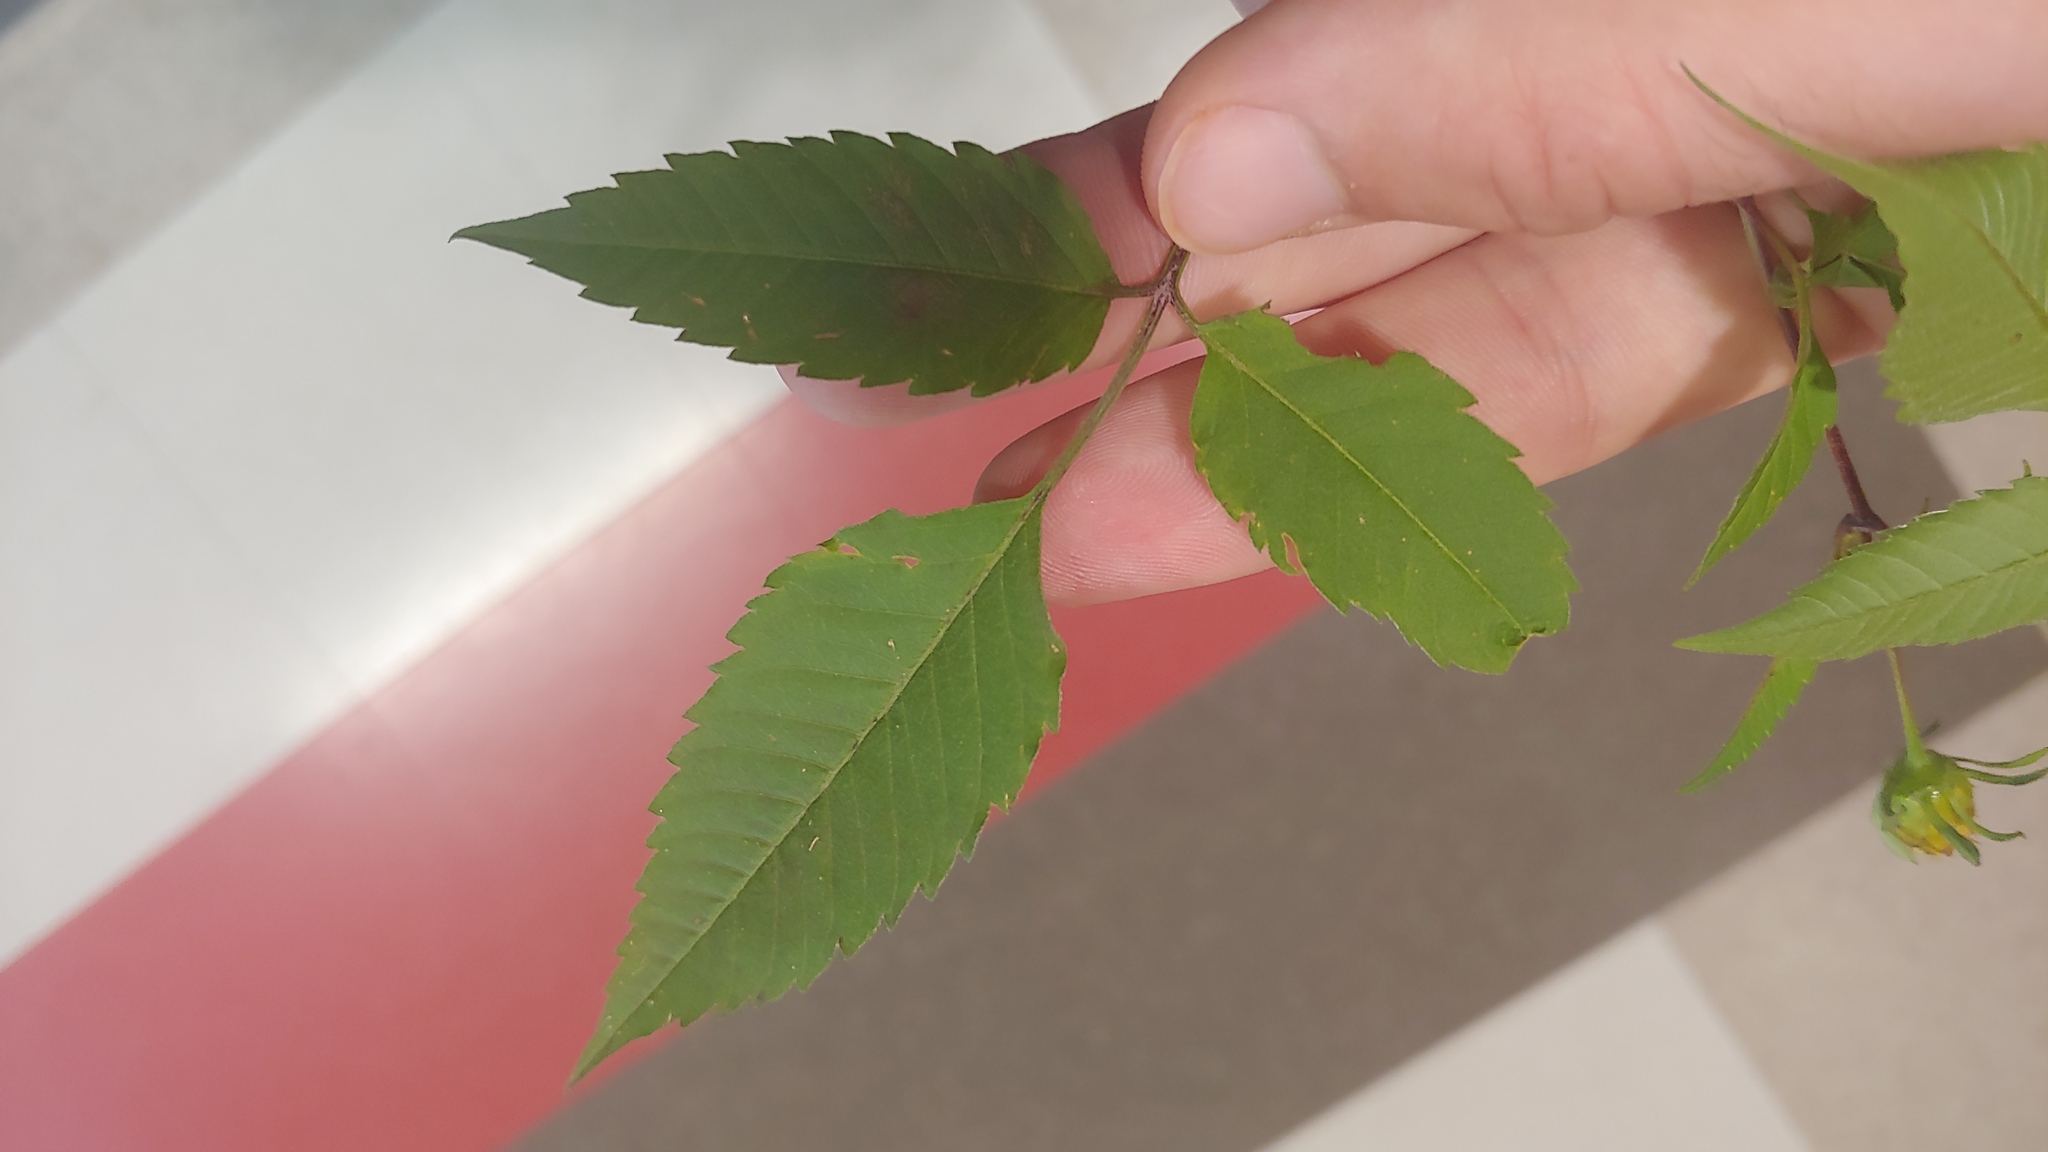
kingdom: Plantae
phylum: Tracheophyta
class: Magnoliopsida
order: Asterales
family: Asteraceae
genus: Bidens
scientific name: Bidens frondosa
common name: Beggarticks
